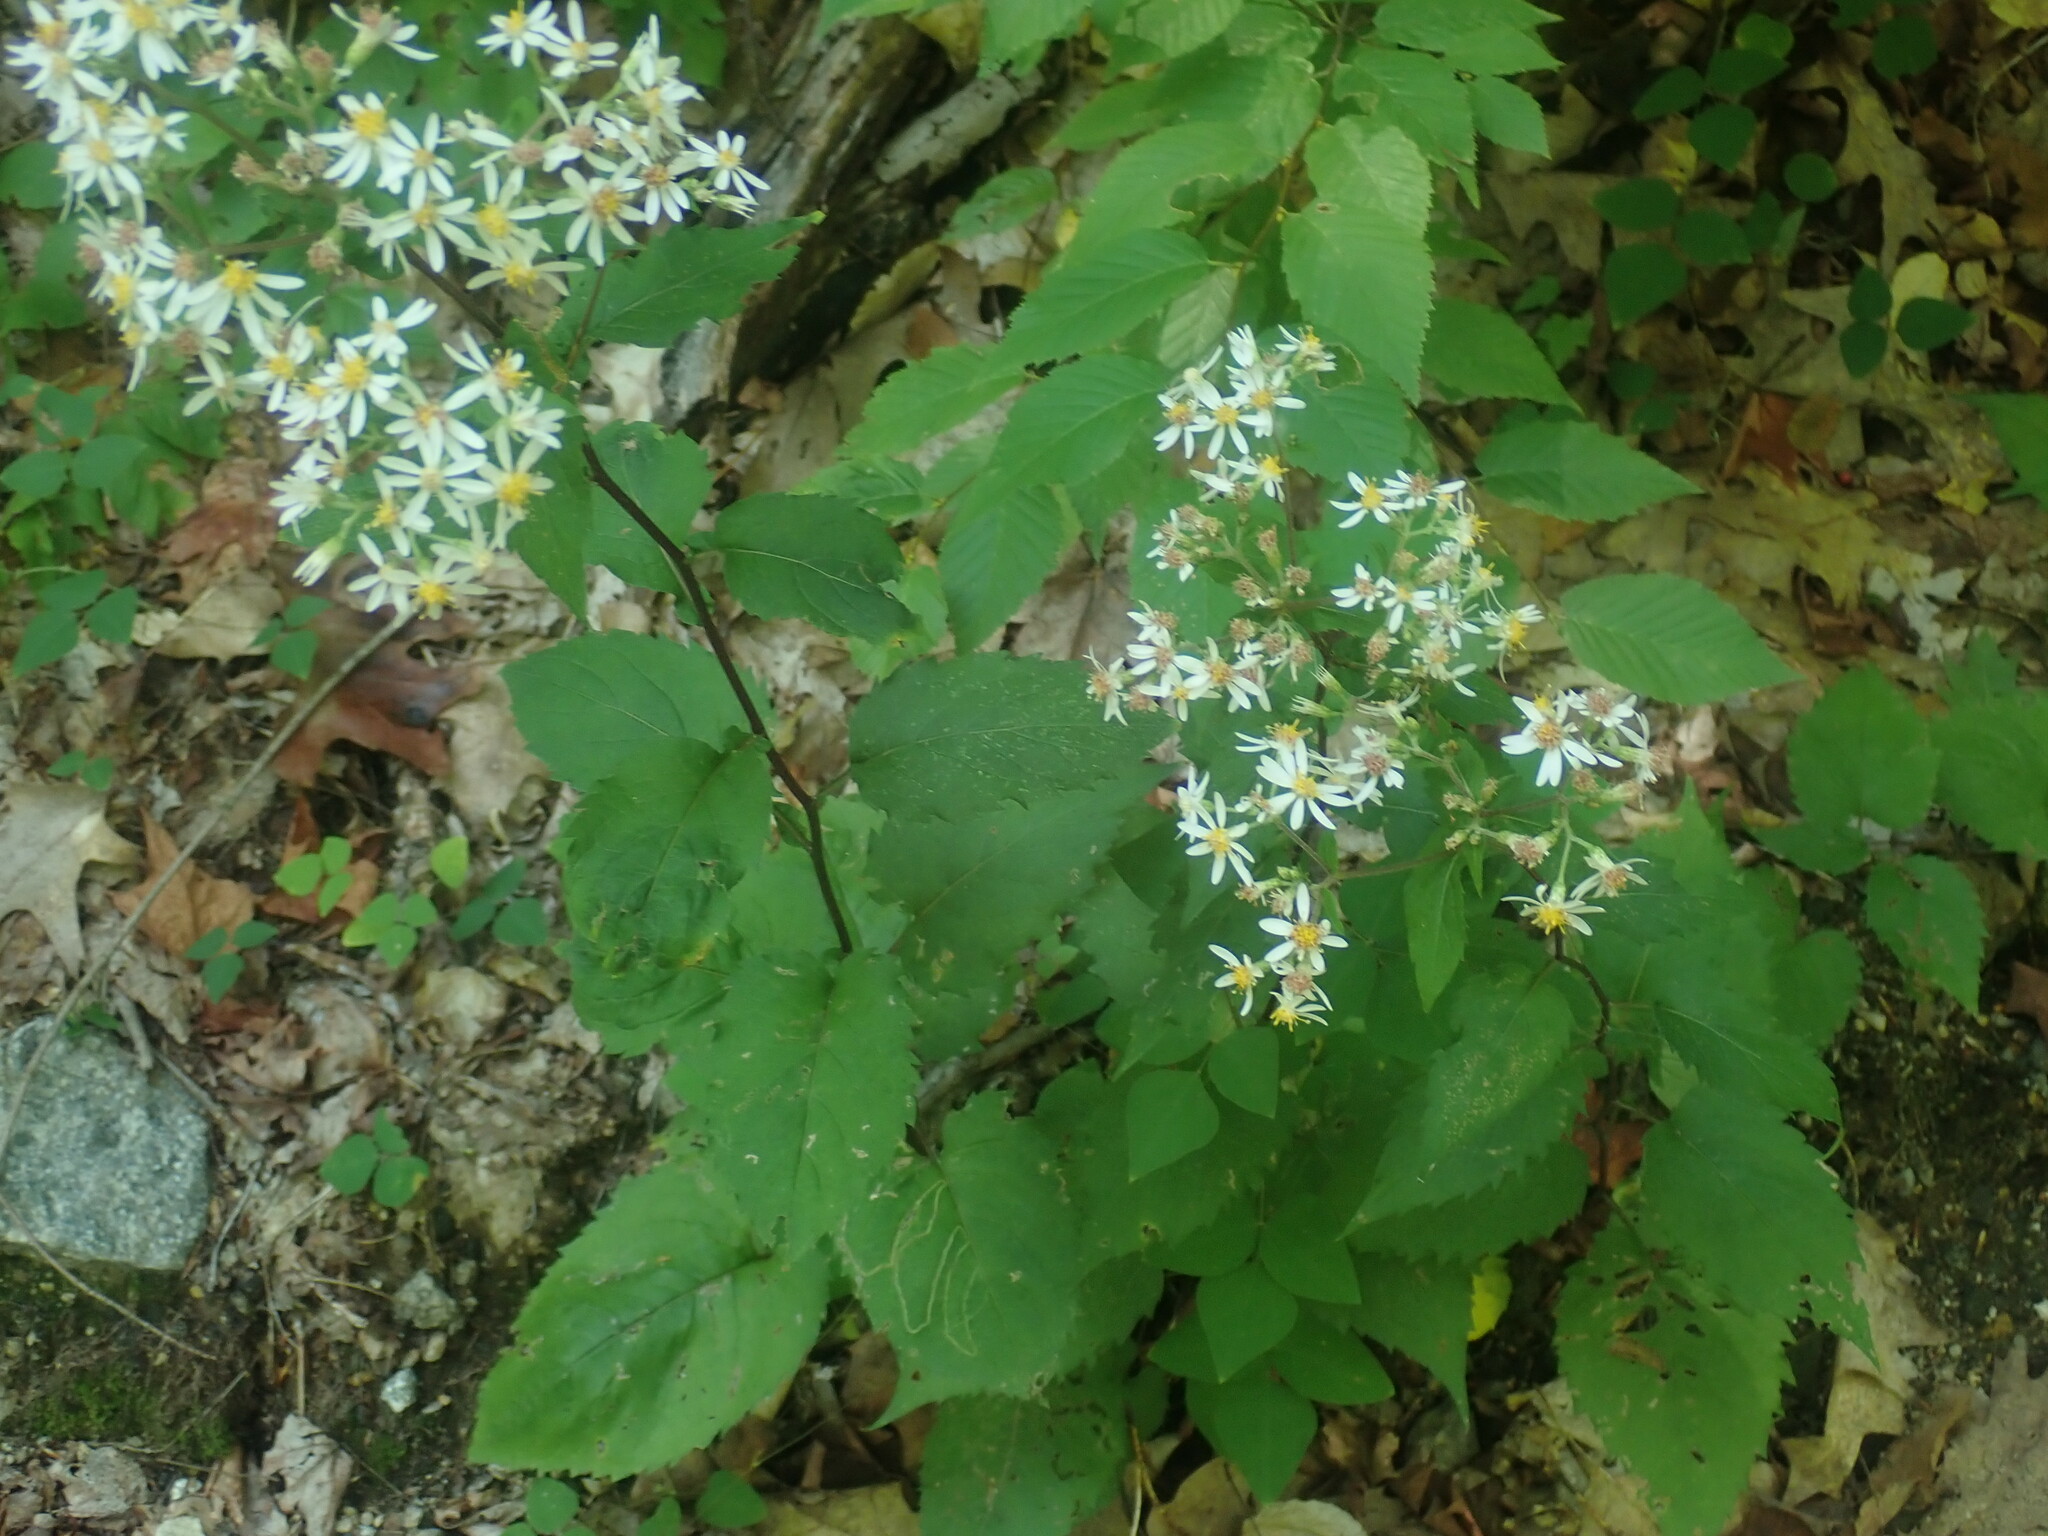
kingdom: Plantae
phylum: Tracheophyta
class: Magnoliopsida
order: Asterales
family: Asteraceae
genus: Eurybia
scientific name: Eurybia divaricata
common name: White wood aster
